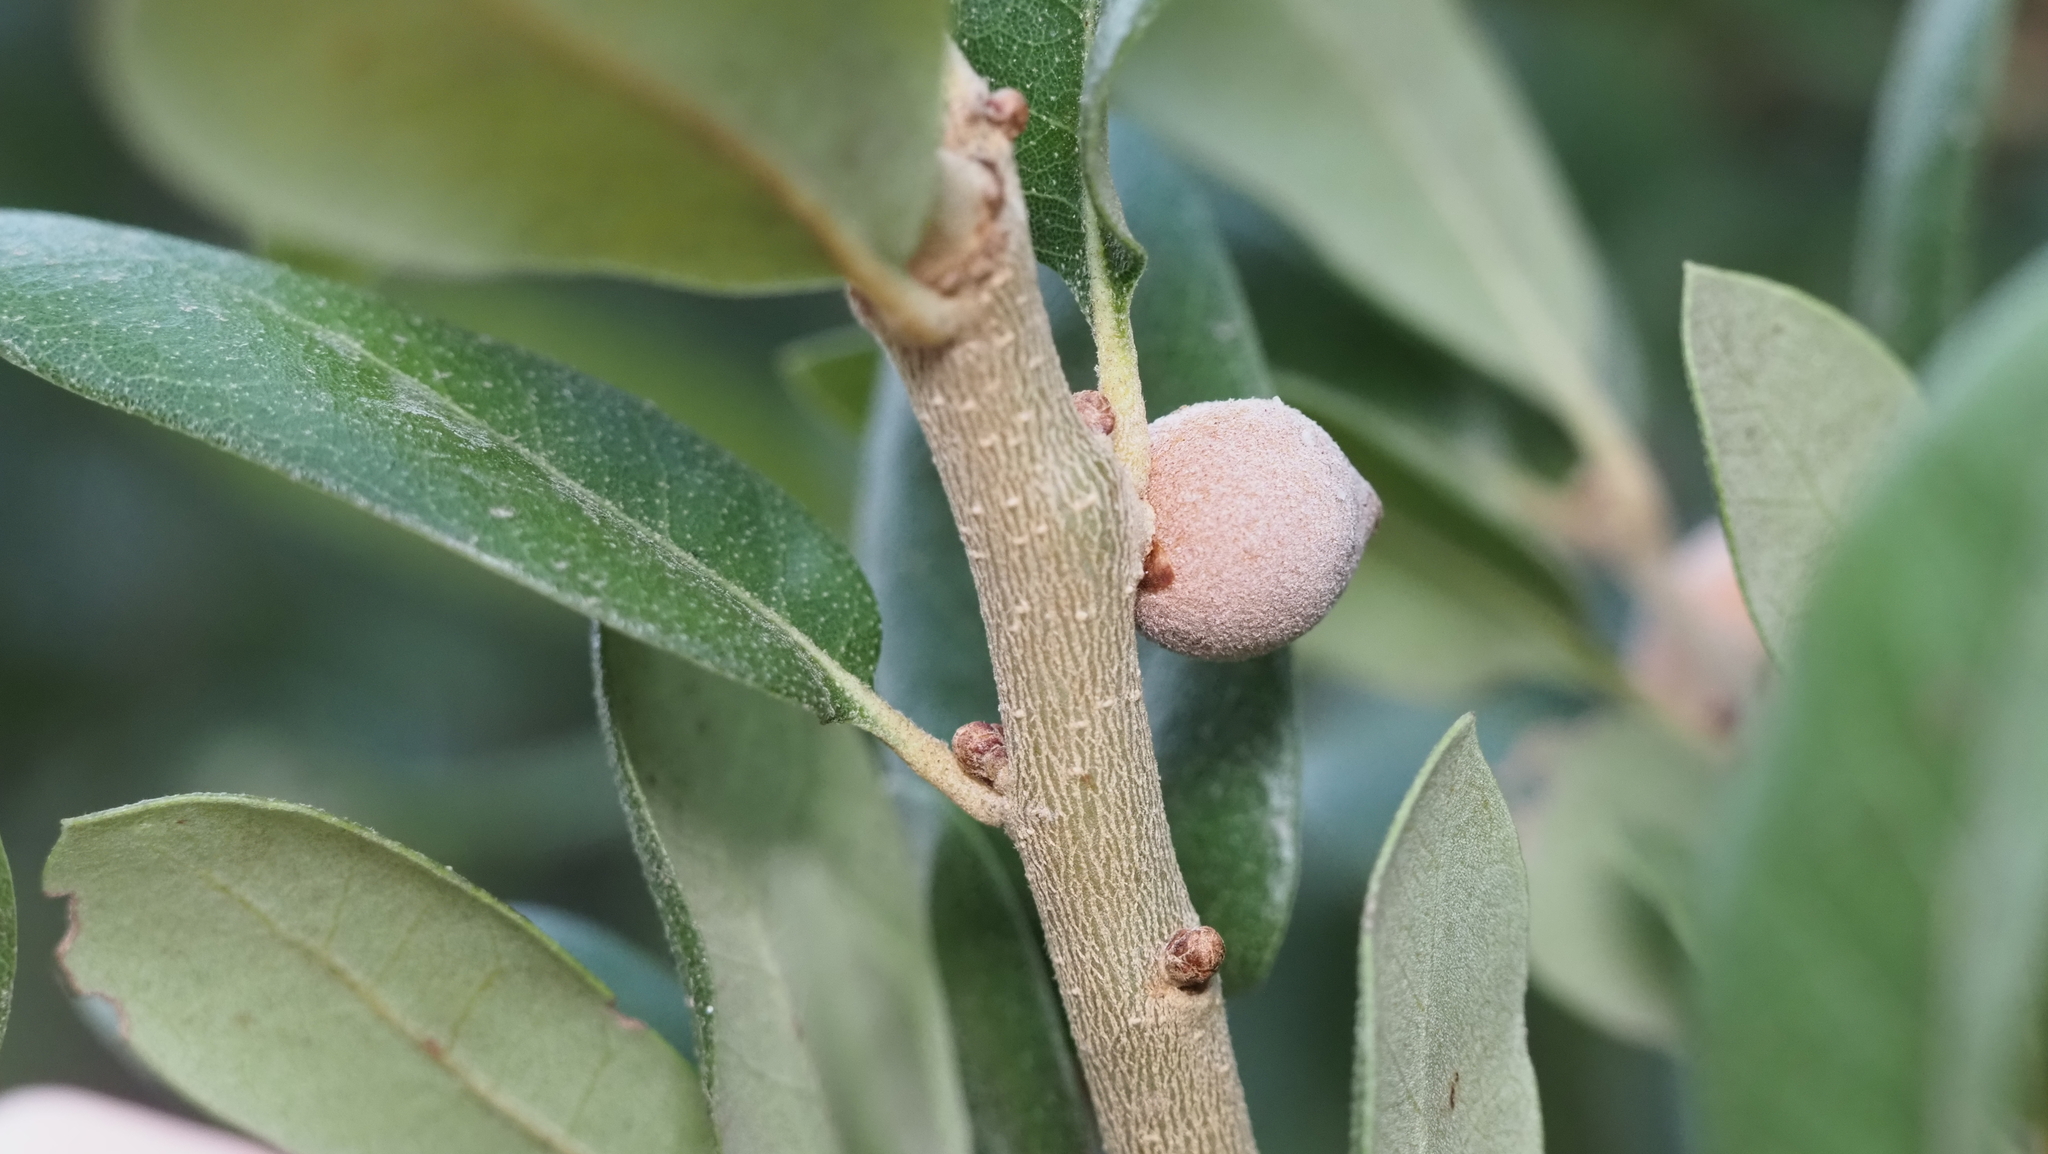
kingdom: Animalia
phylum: Arthropoda
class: Insecta
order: Hymenoptera
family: Cynipidae
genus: Disholcaspis
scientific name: Disholcaspis
